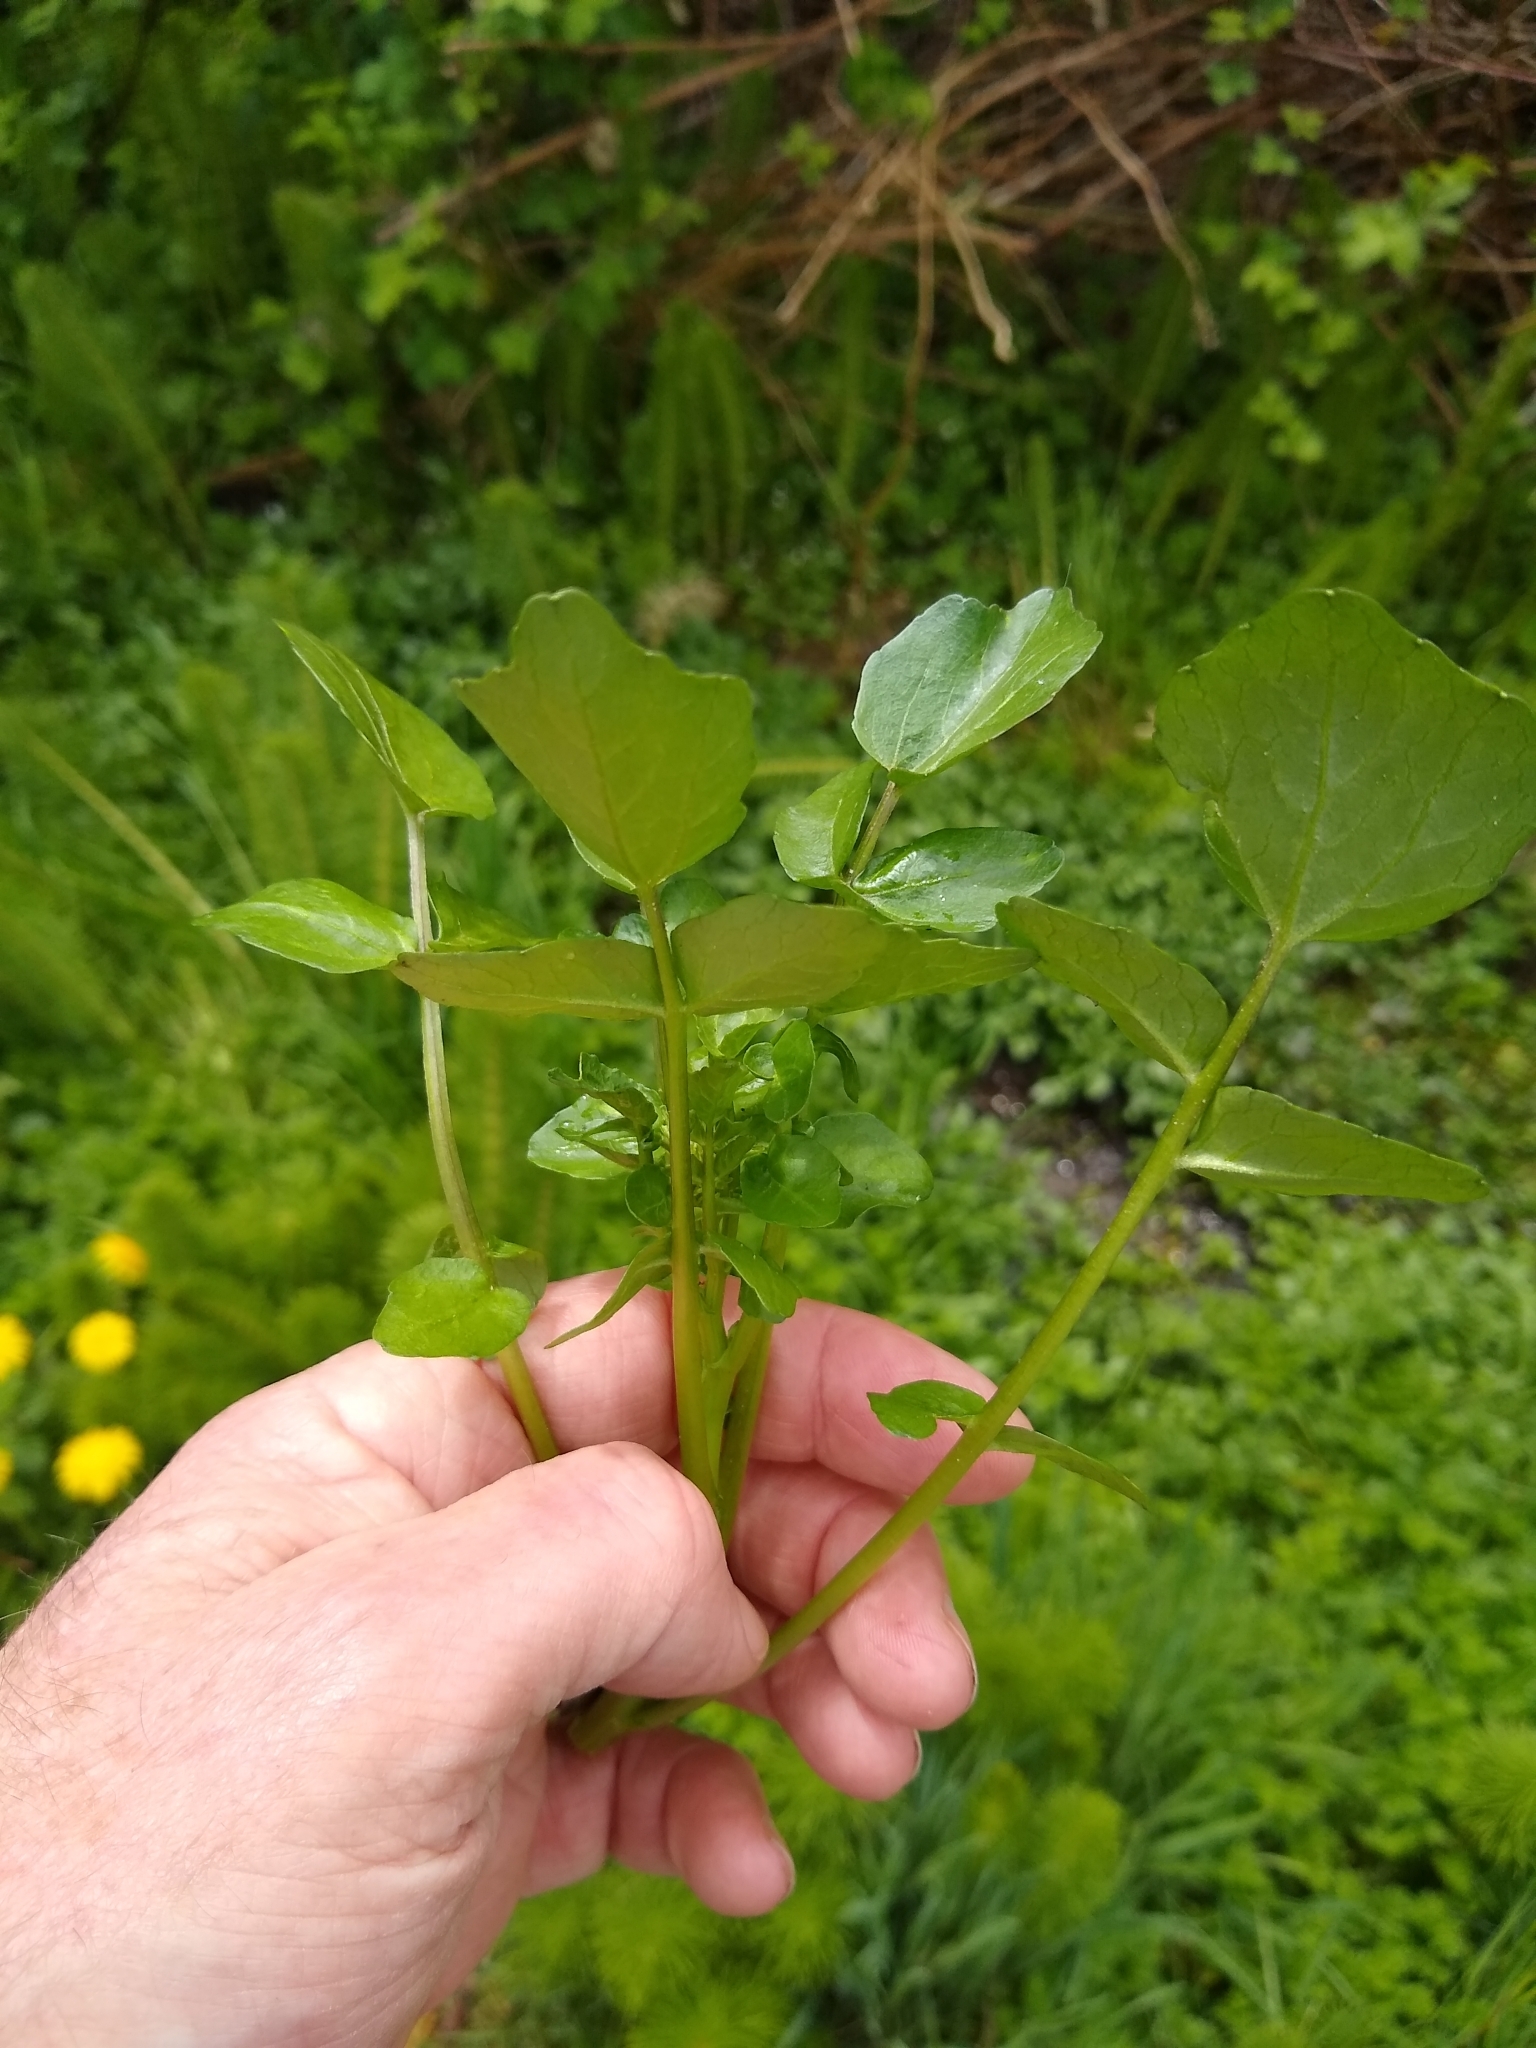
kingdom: Plantae
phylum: Tracheophyta
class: Magnoliopsida
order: Brassicales
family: Brassicaceae
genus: Nasturtium
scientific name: Nasturtium officinale
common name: Watercress
